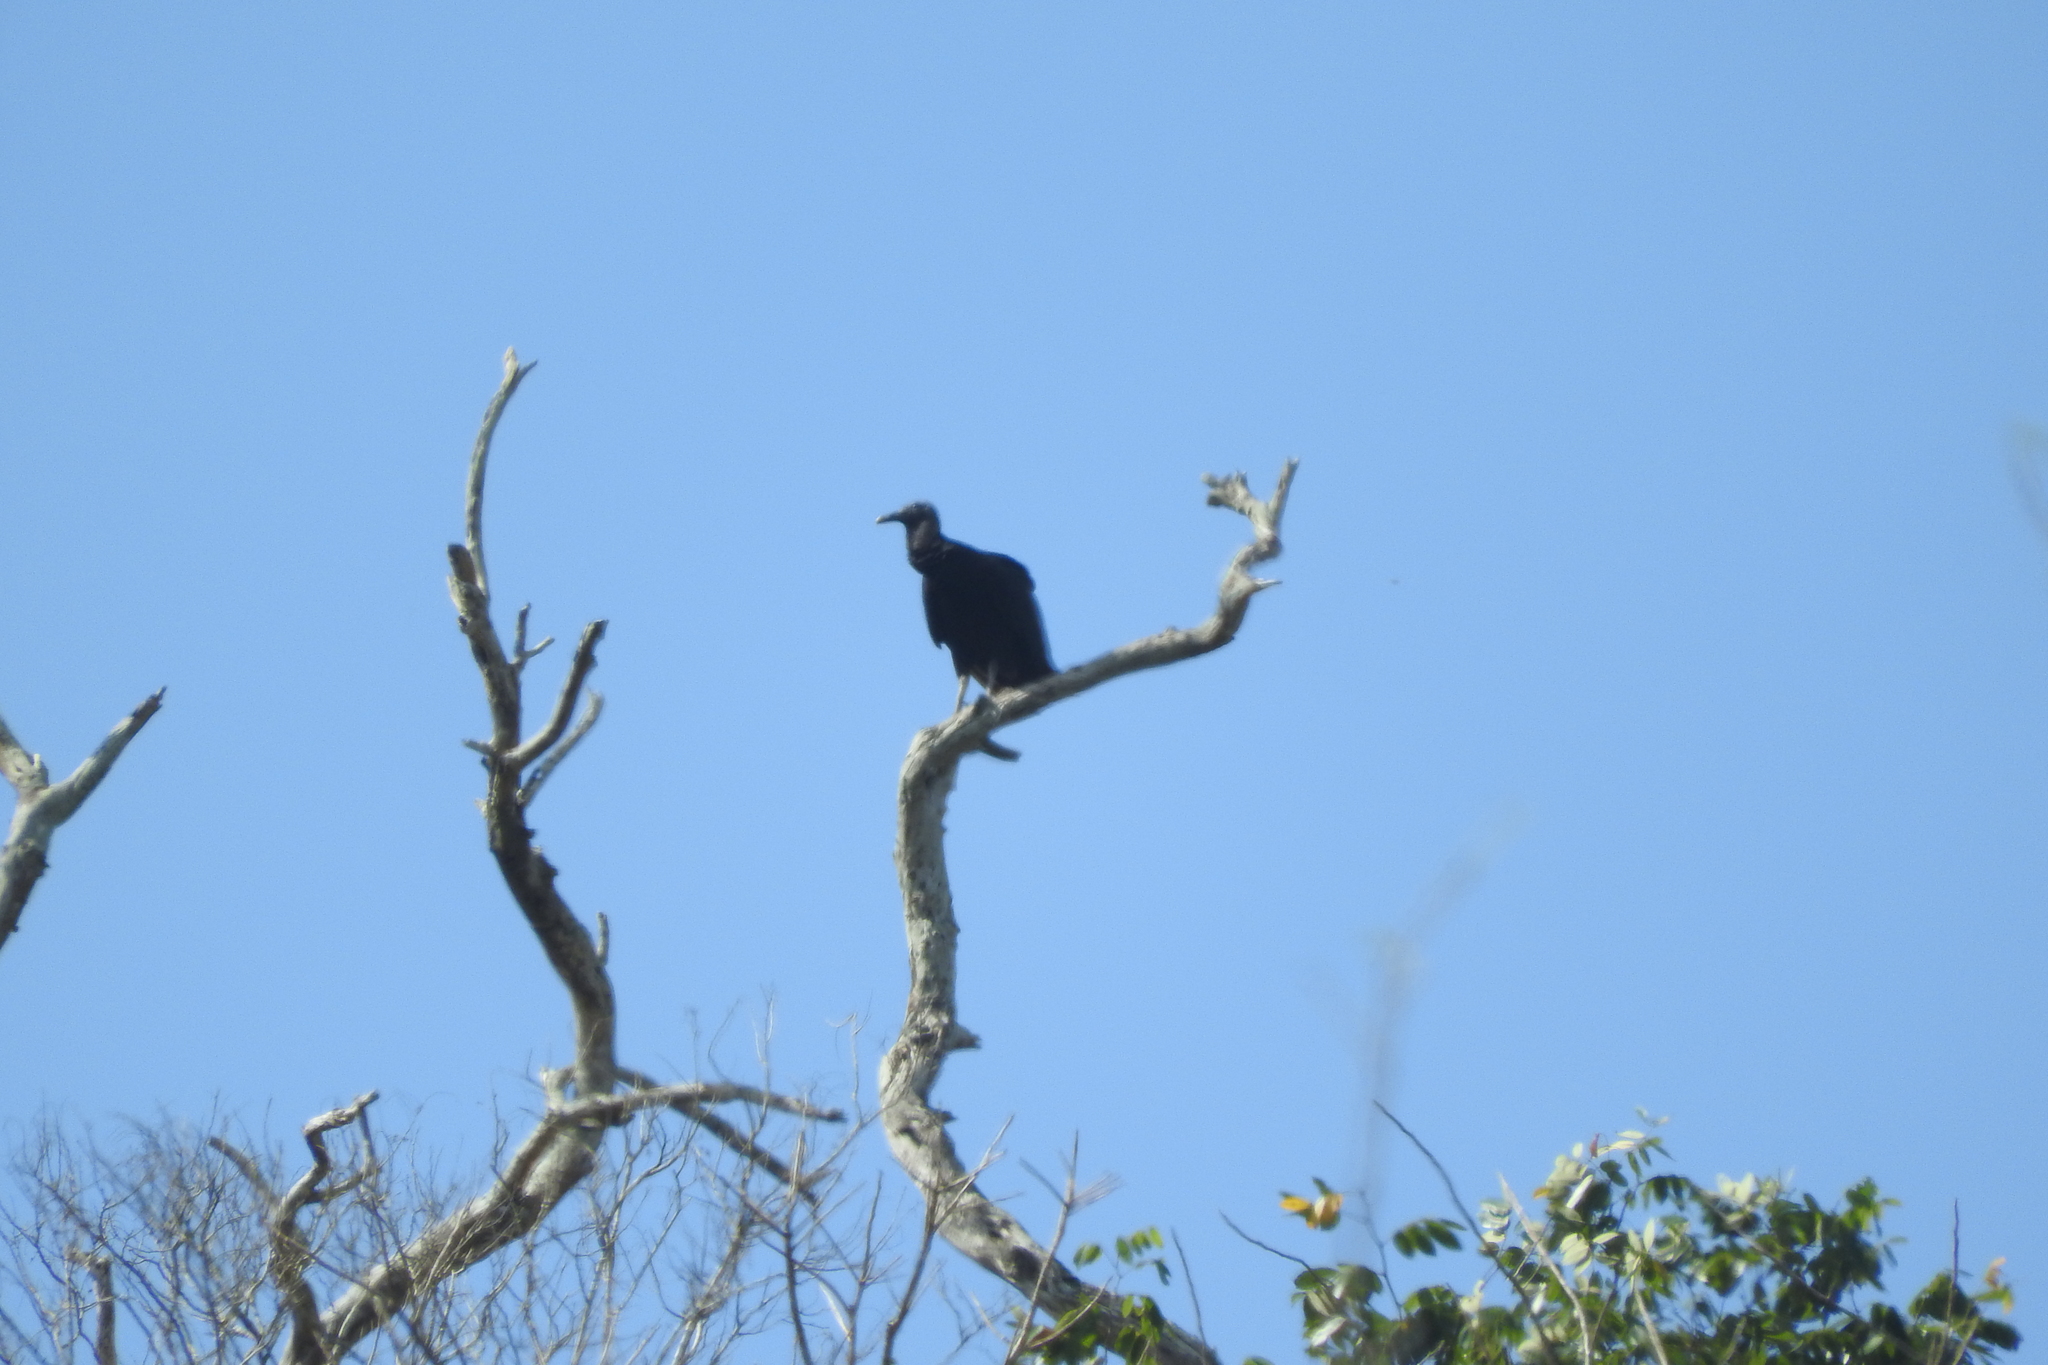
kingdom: Animalia
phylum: Chordata
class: Aves
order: Accipitriformes
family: Cathartidae
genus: Coragyps
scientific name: Coragyps atratus
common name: Black vulture
